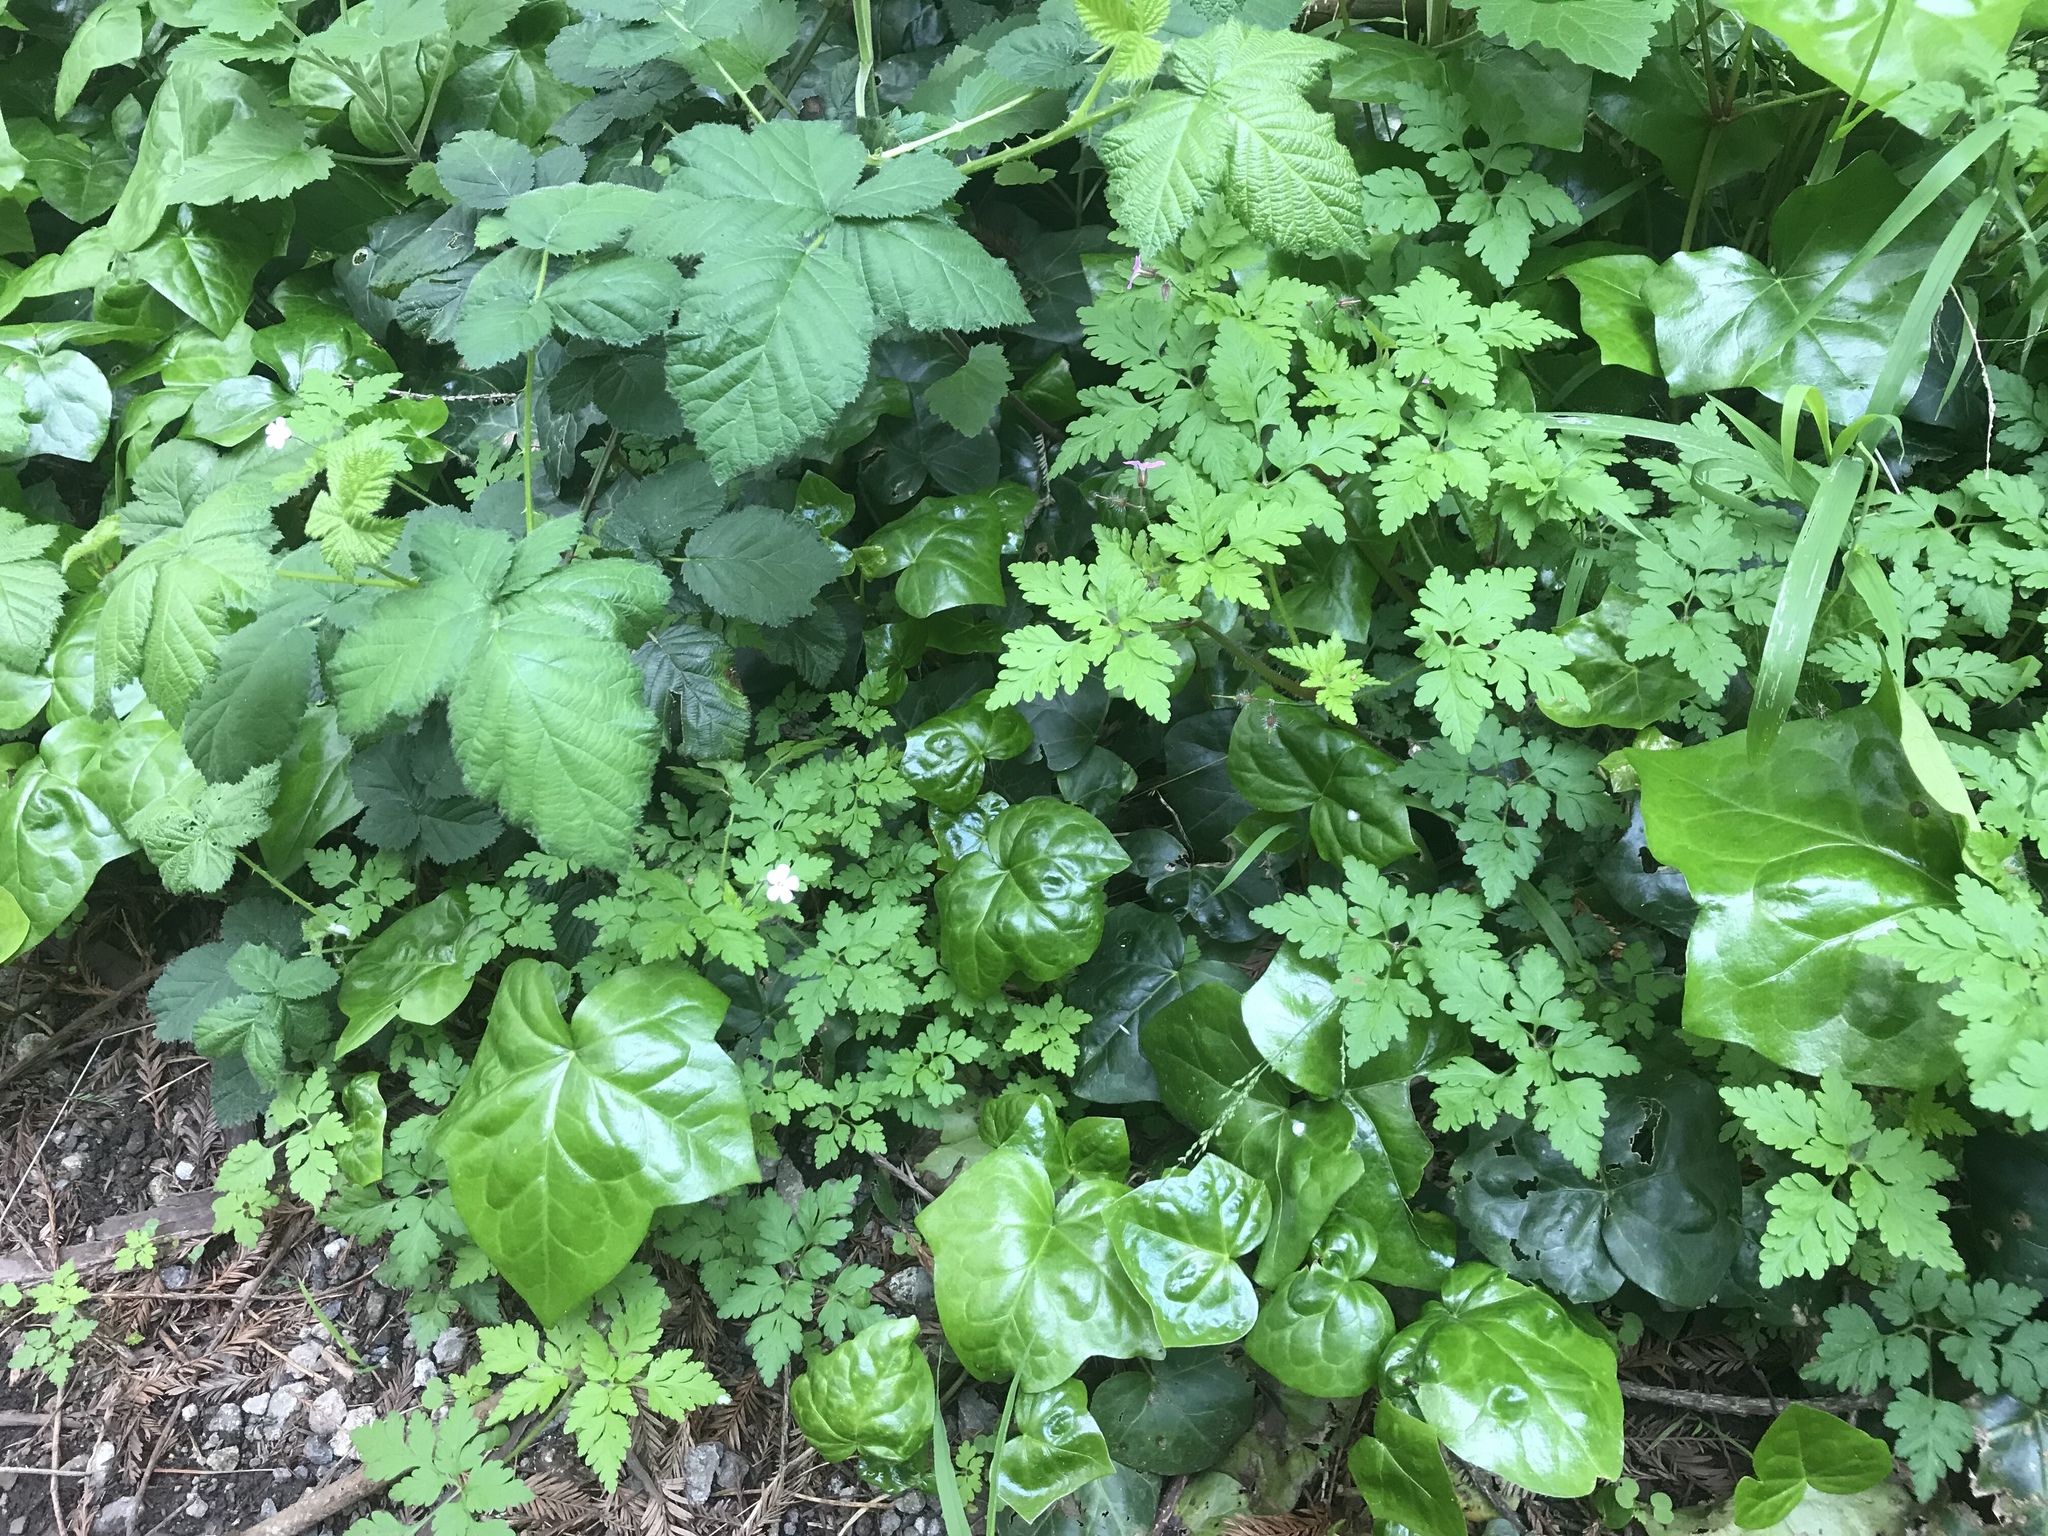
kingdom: Plantae
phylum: Tracheophyta
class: Magnoliopsida
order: Geraniales
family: Geraniaceae
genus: Geranium
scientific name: Geranium robertianum
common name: Herb-robert
